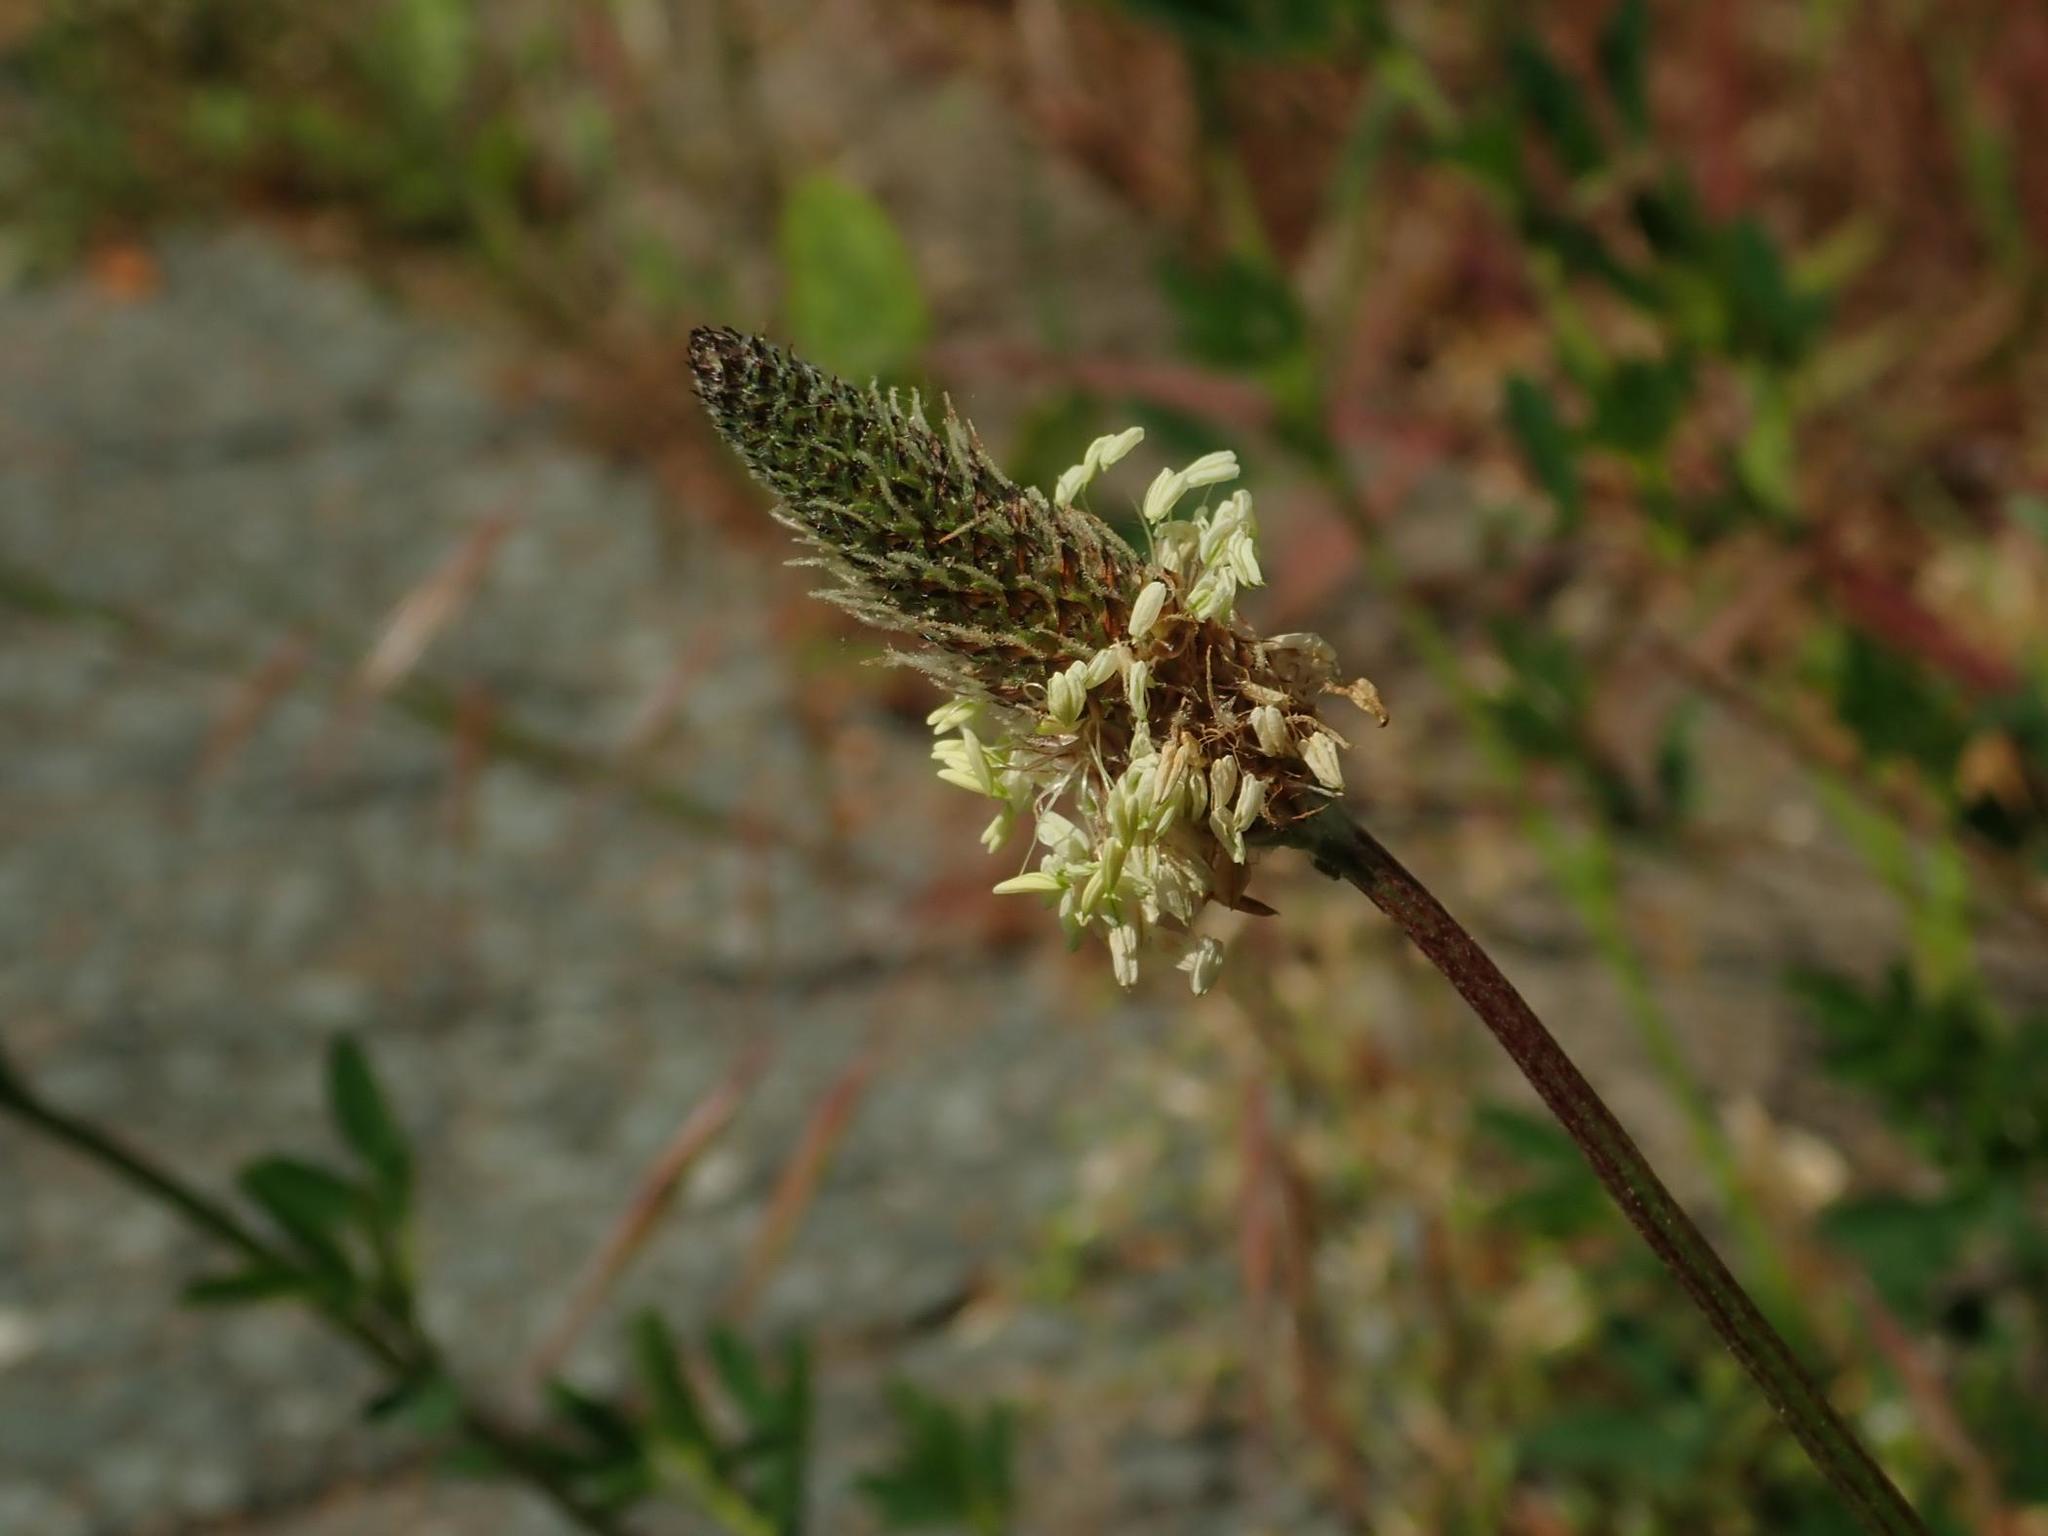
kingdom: Plantae
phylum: Tracheophyta
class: Magnoliopsida
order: Lamiales
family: Plantaginaceae
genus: Plantago
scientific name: Plantago lanceolata
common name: Ribwort plantain
